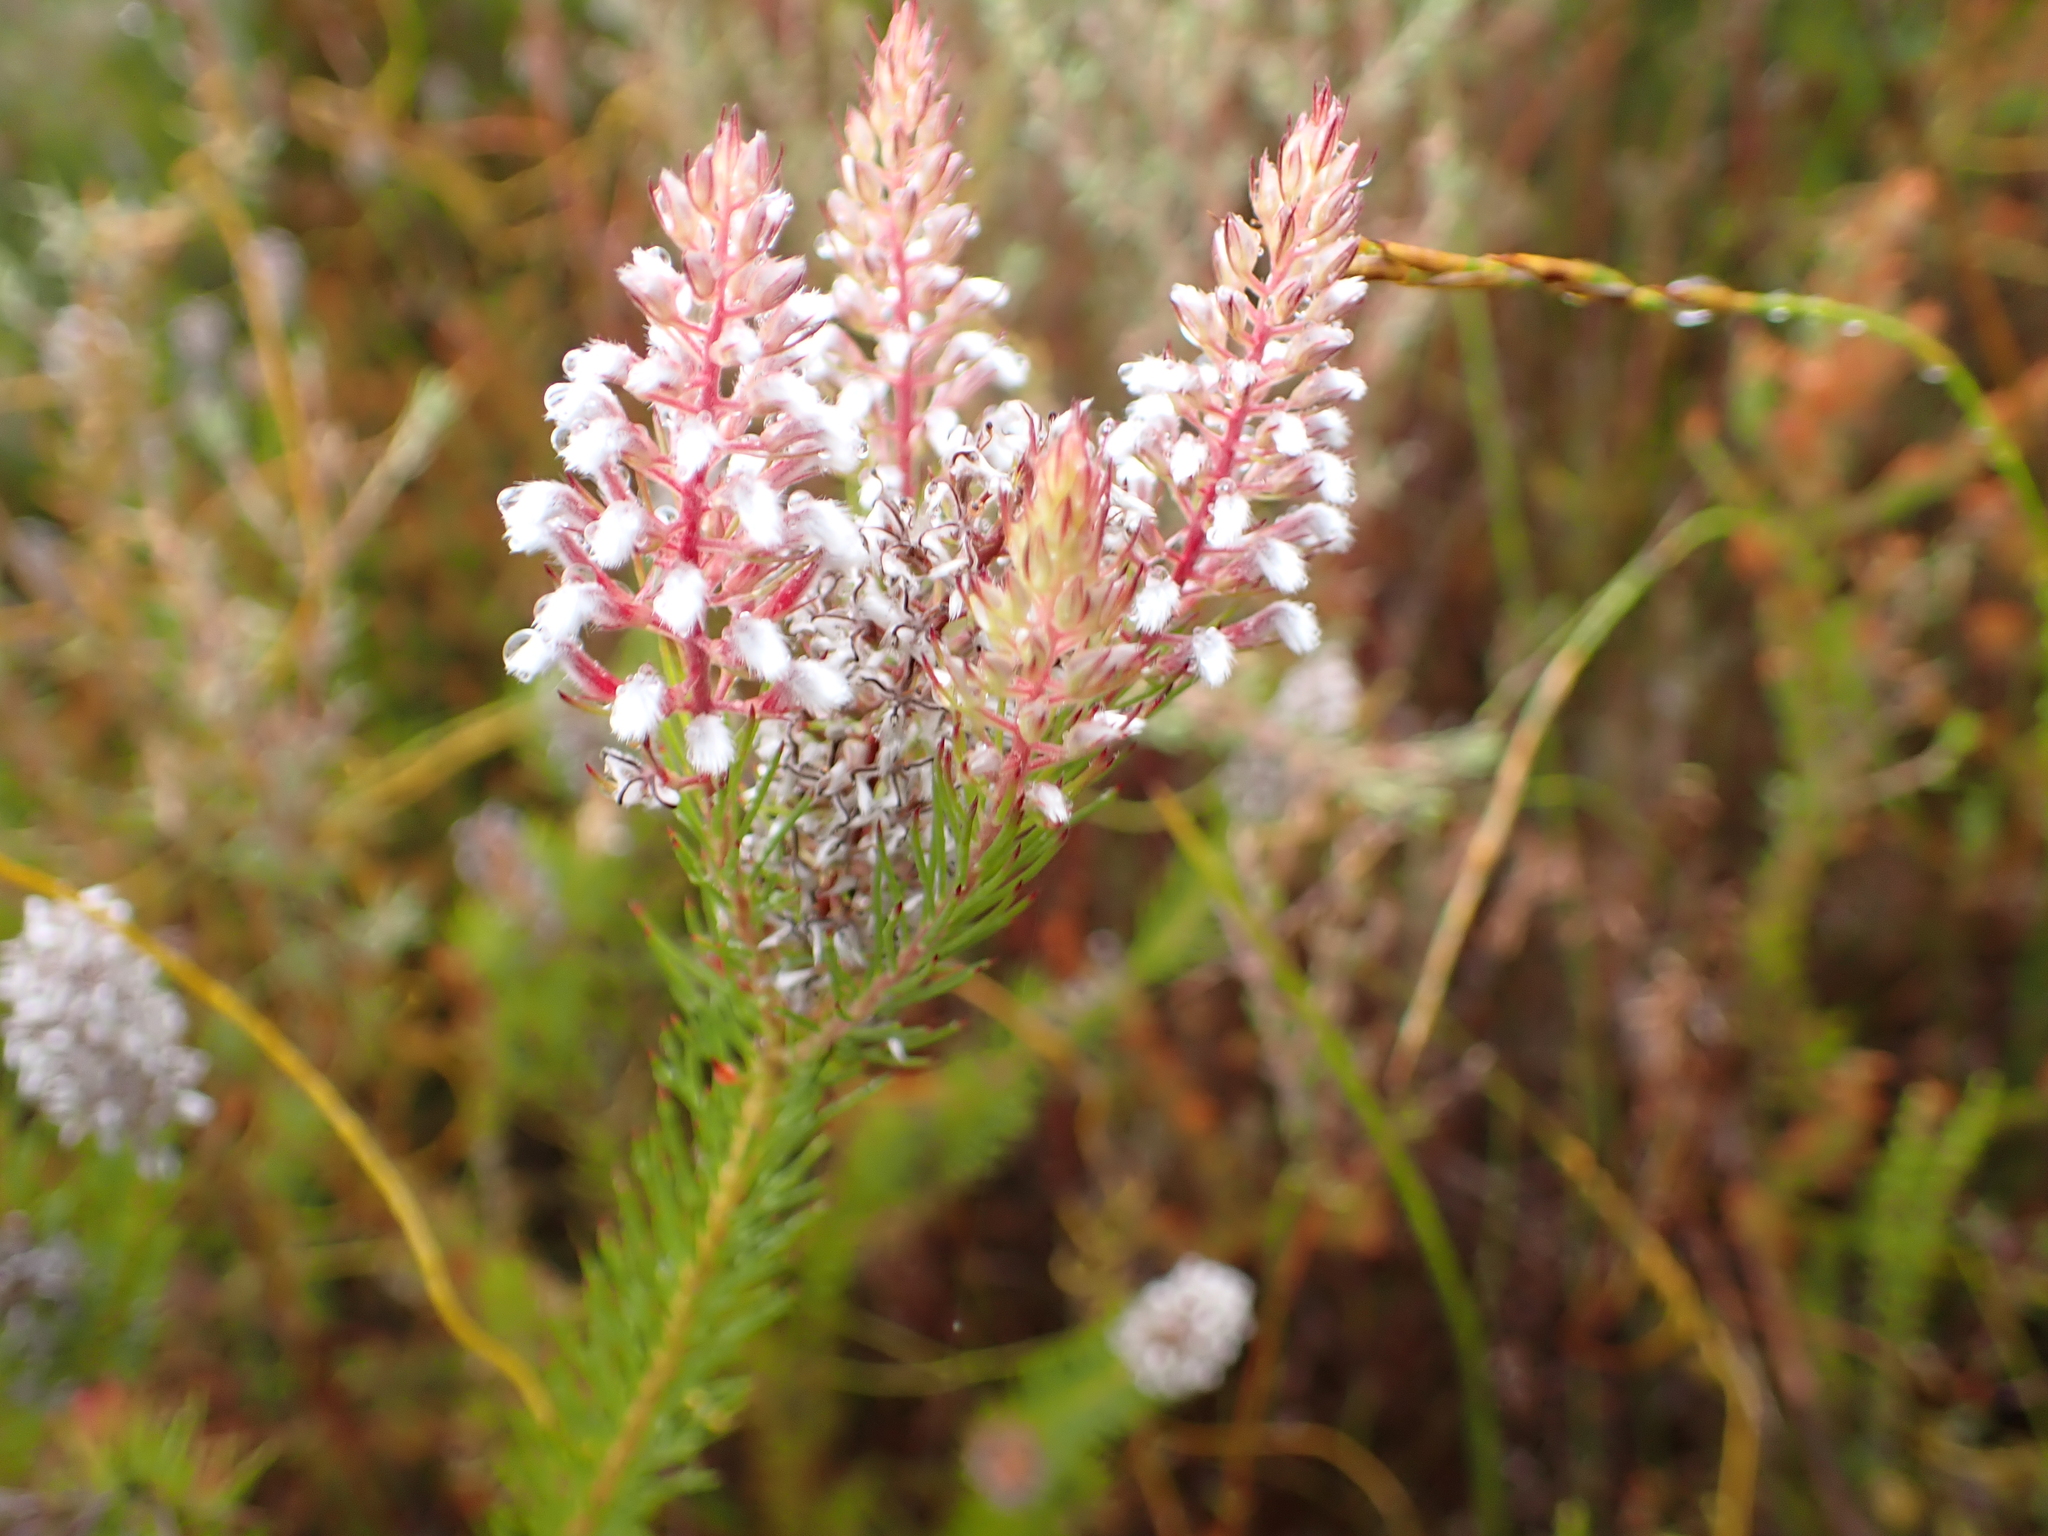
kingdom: Plantae
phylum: Tracheophyta
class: Magnoliopsida
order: Proteales
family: Proteaceae
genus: Spatalla
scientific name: Spatalla parilis
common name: Spike spoon
